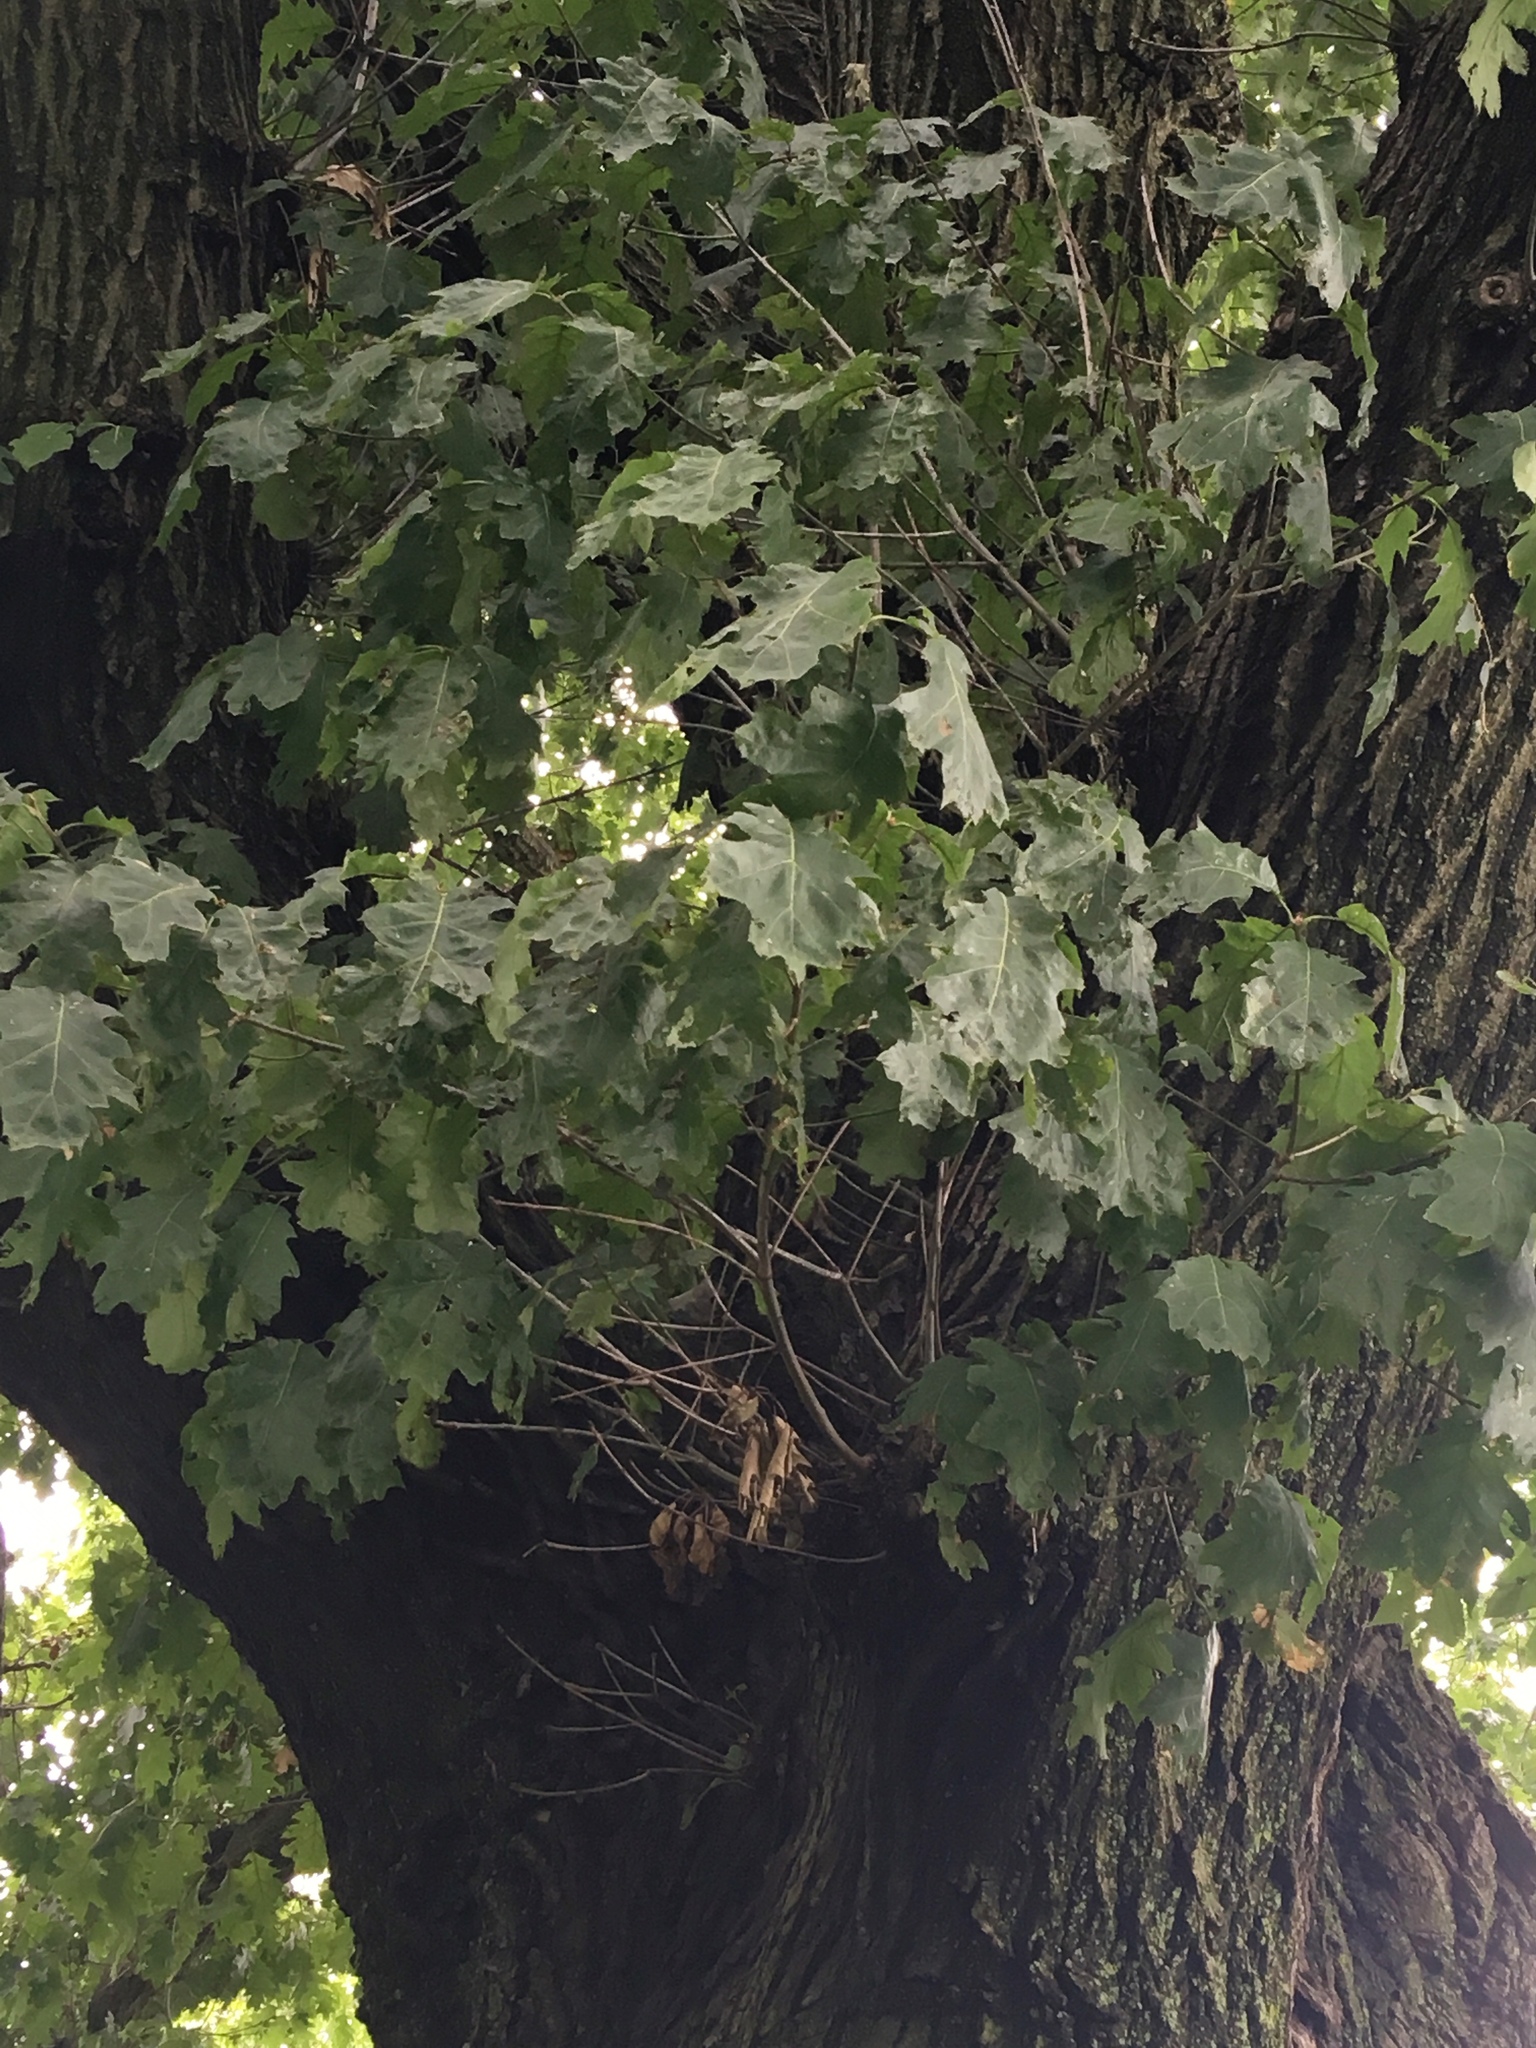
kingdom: Plantae
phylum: Tracheophyta
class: Magnoliopsida
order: Fagales
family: Fagaceae
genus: Quercus
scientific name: Quercus rubra
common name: Red oak
